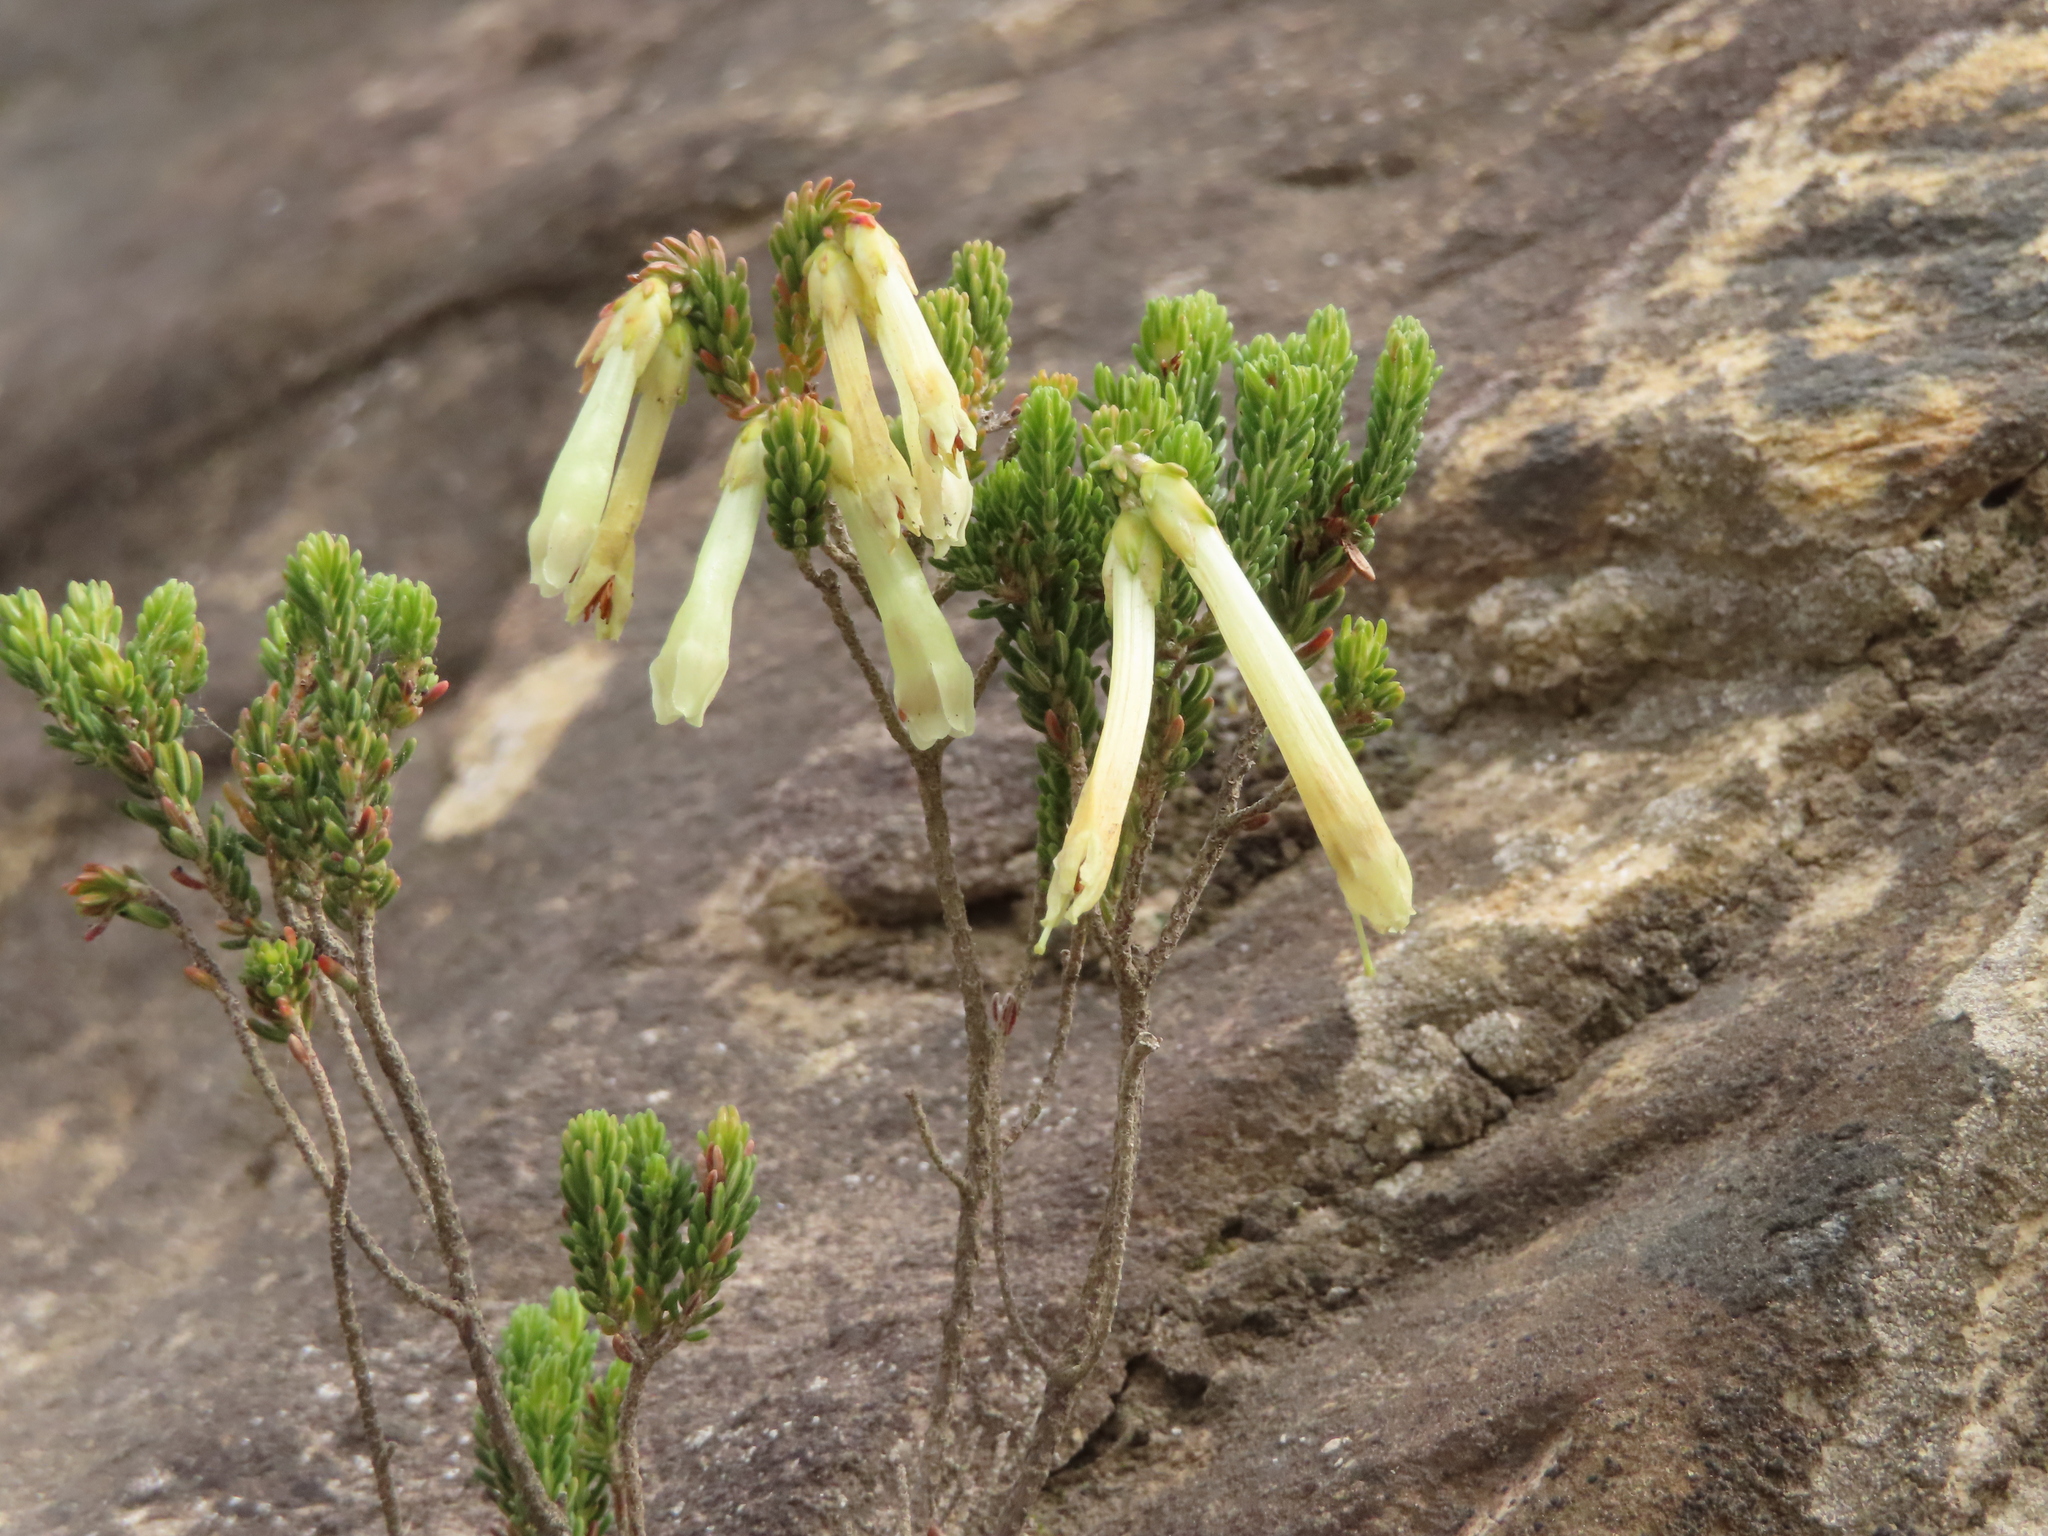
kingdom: Plantae
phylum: Tracheophyta
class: Magnoliopsida
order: Ericales
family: Ericaceae
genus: Erica
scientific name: Erica viridiflora
